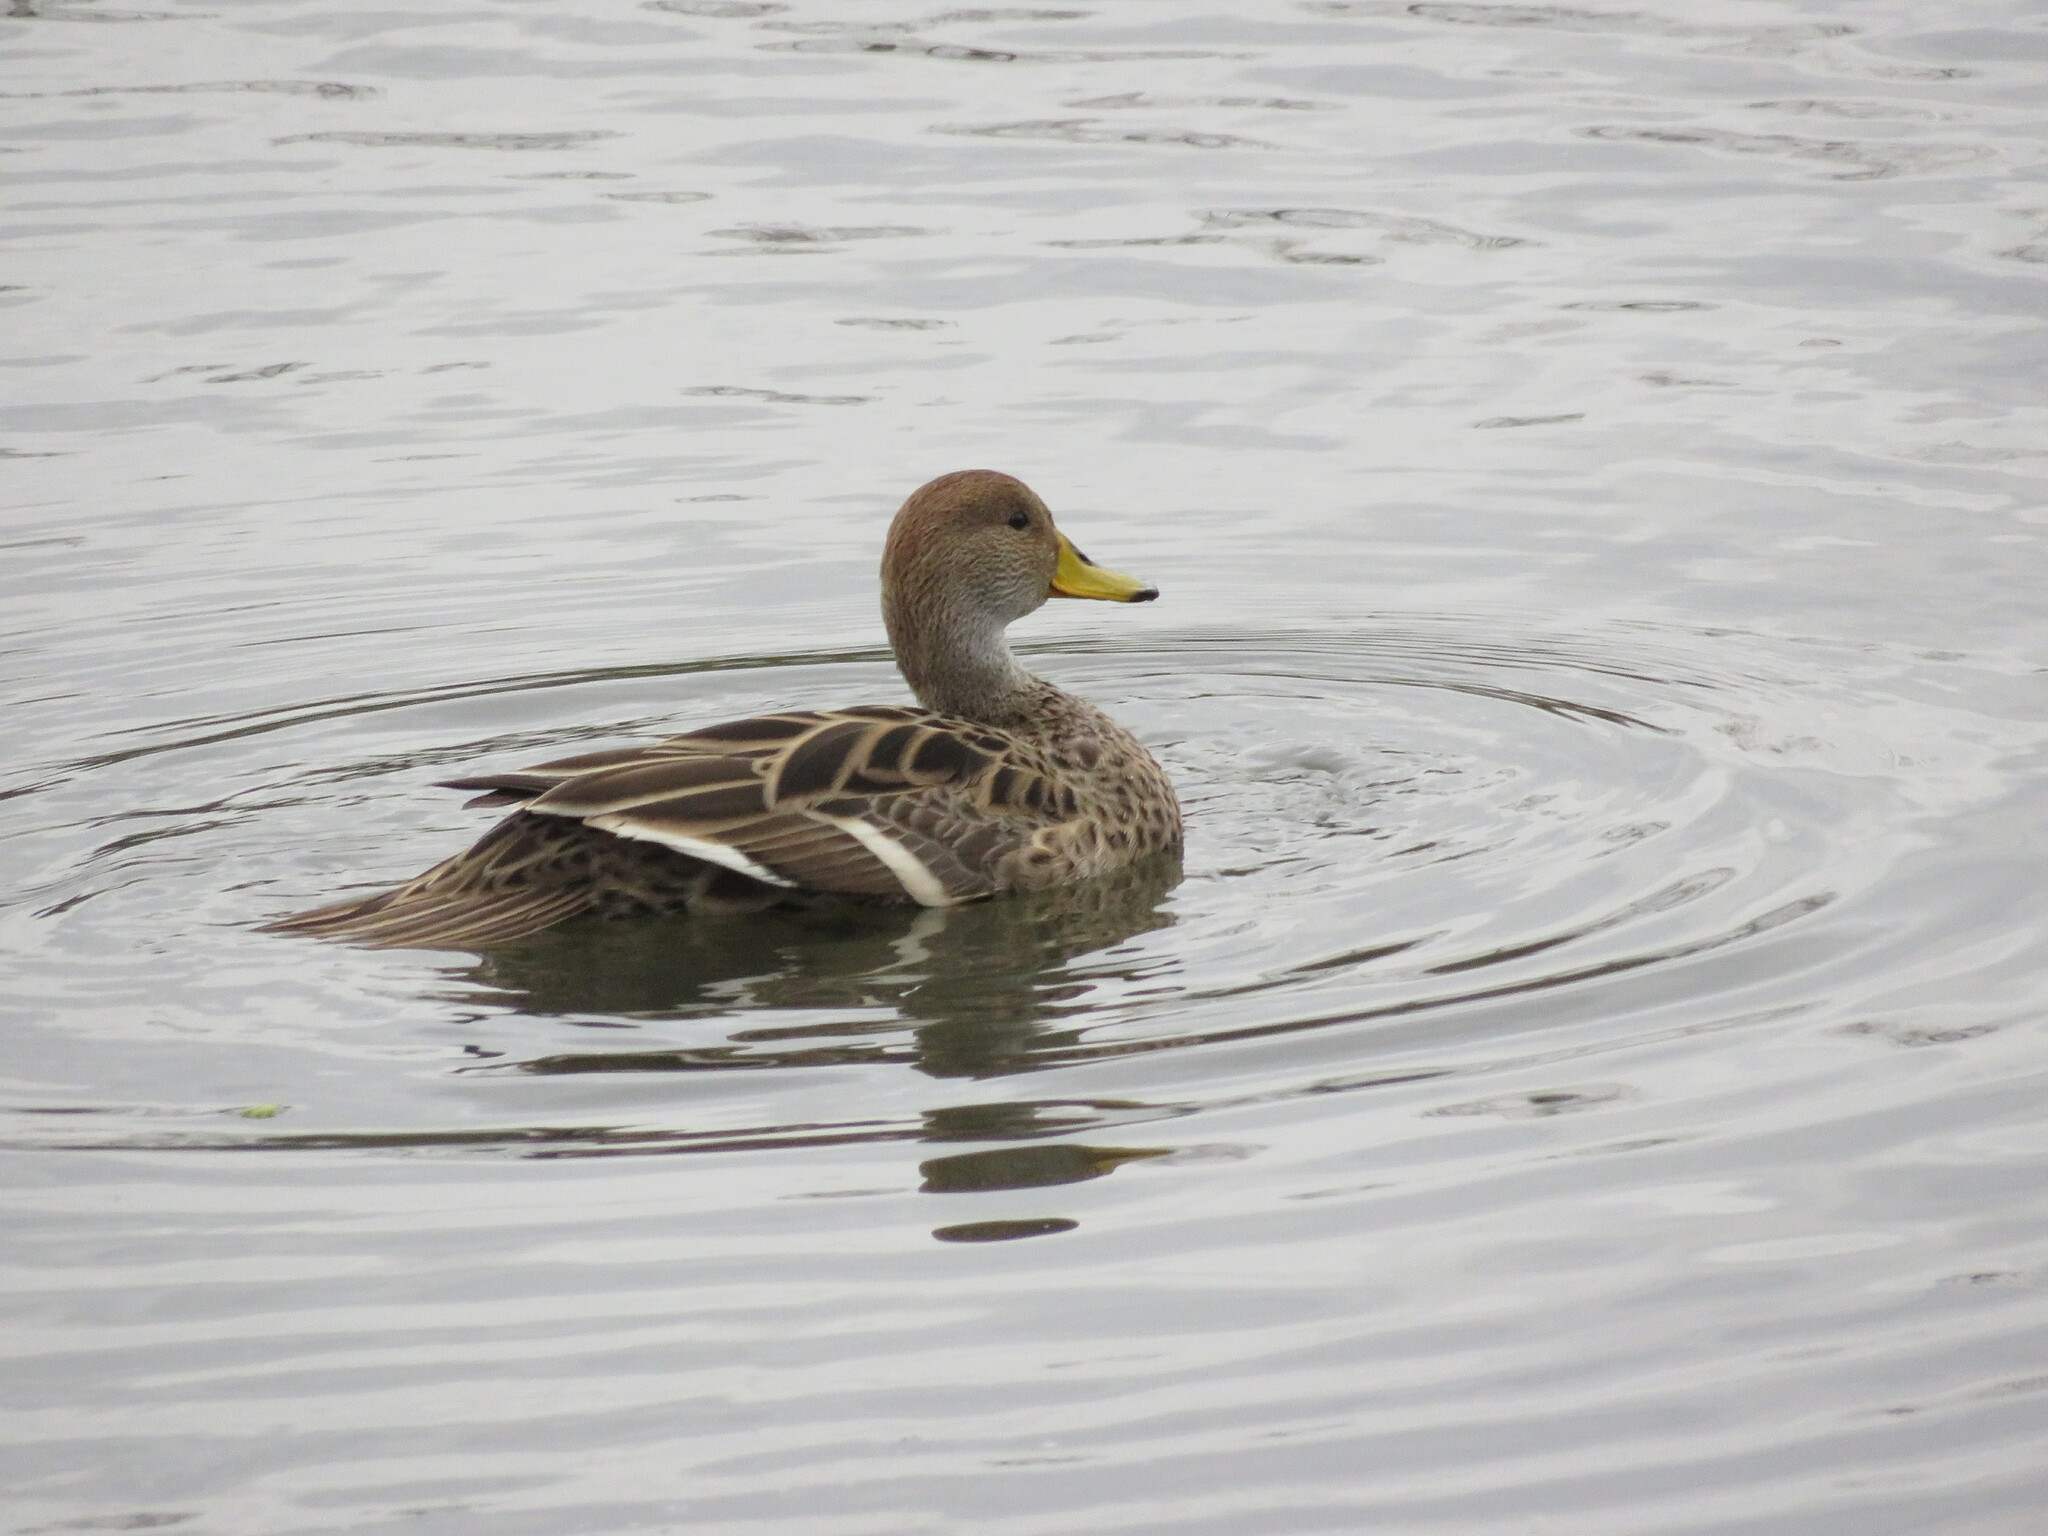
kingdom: Animalia
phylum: Chordata
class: Aves
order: Anseriformes
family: Anatidae
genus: Anas
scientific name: Anas georgica
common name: Yellow-billed pintail
